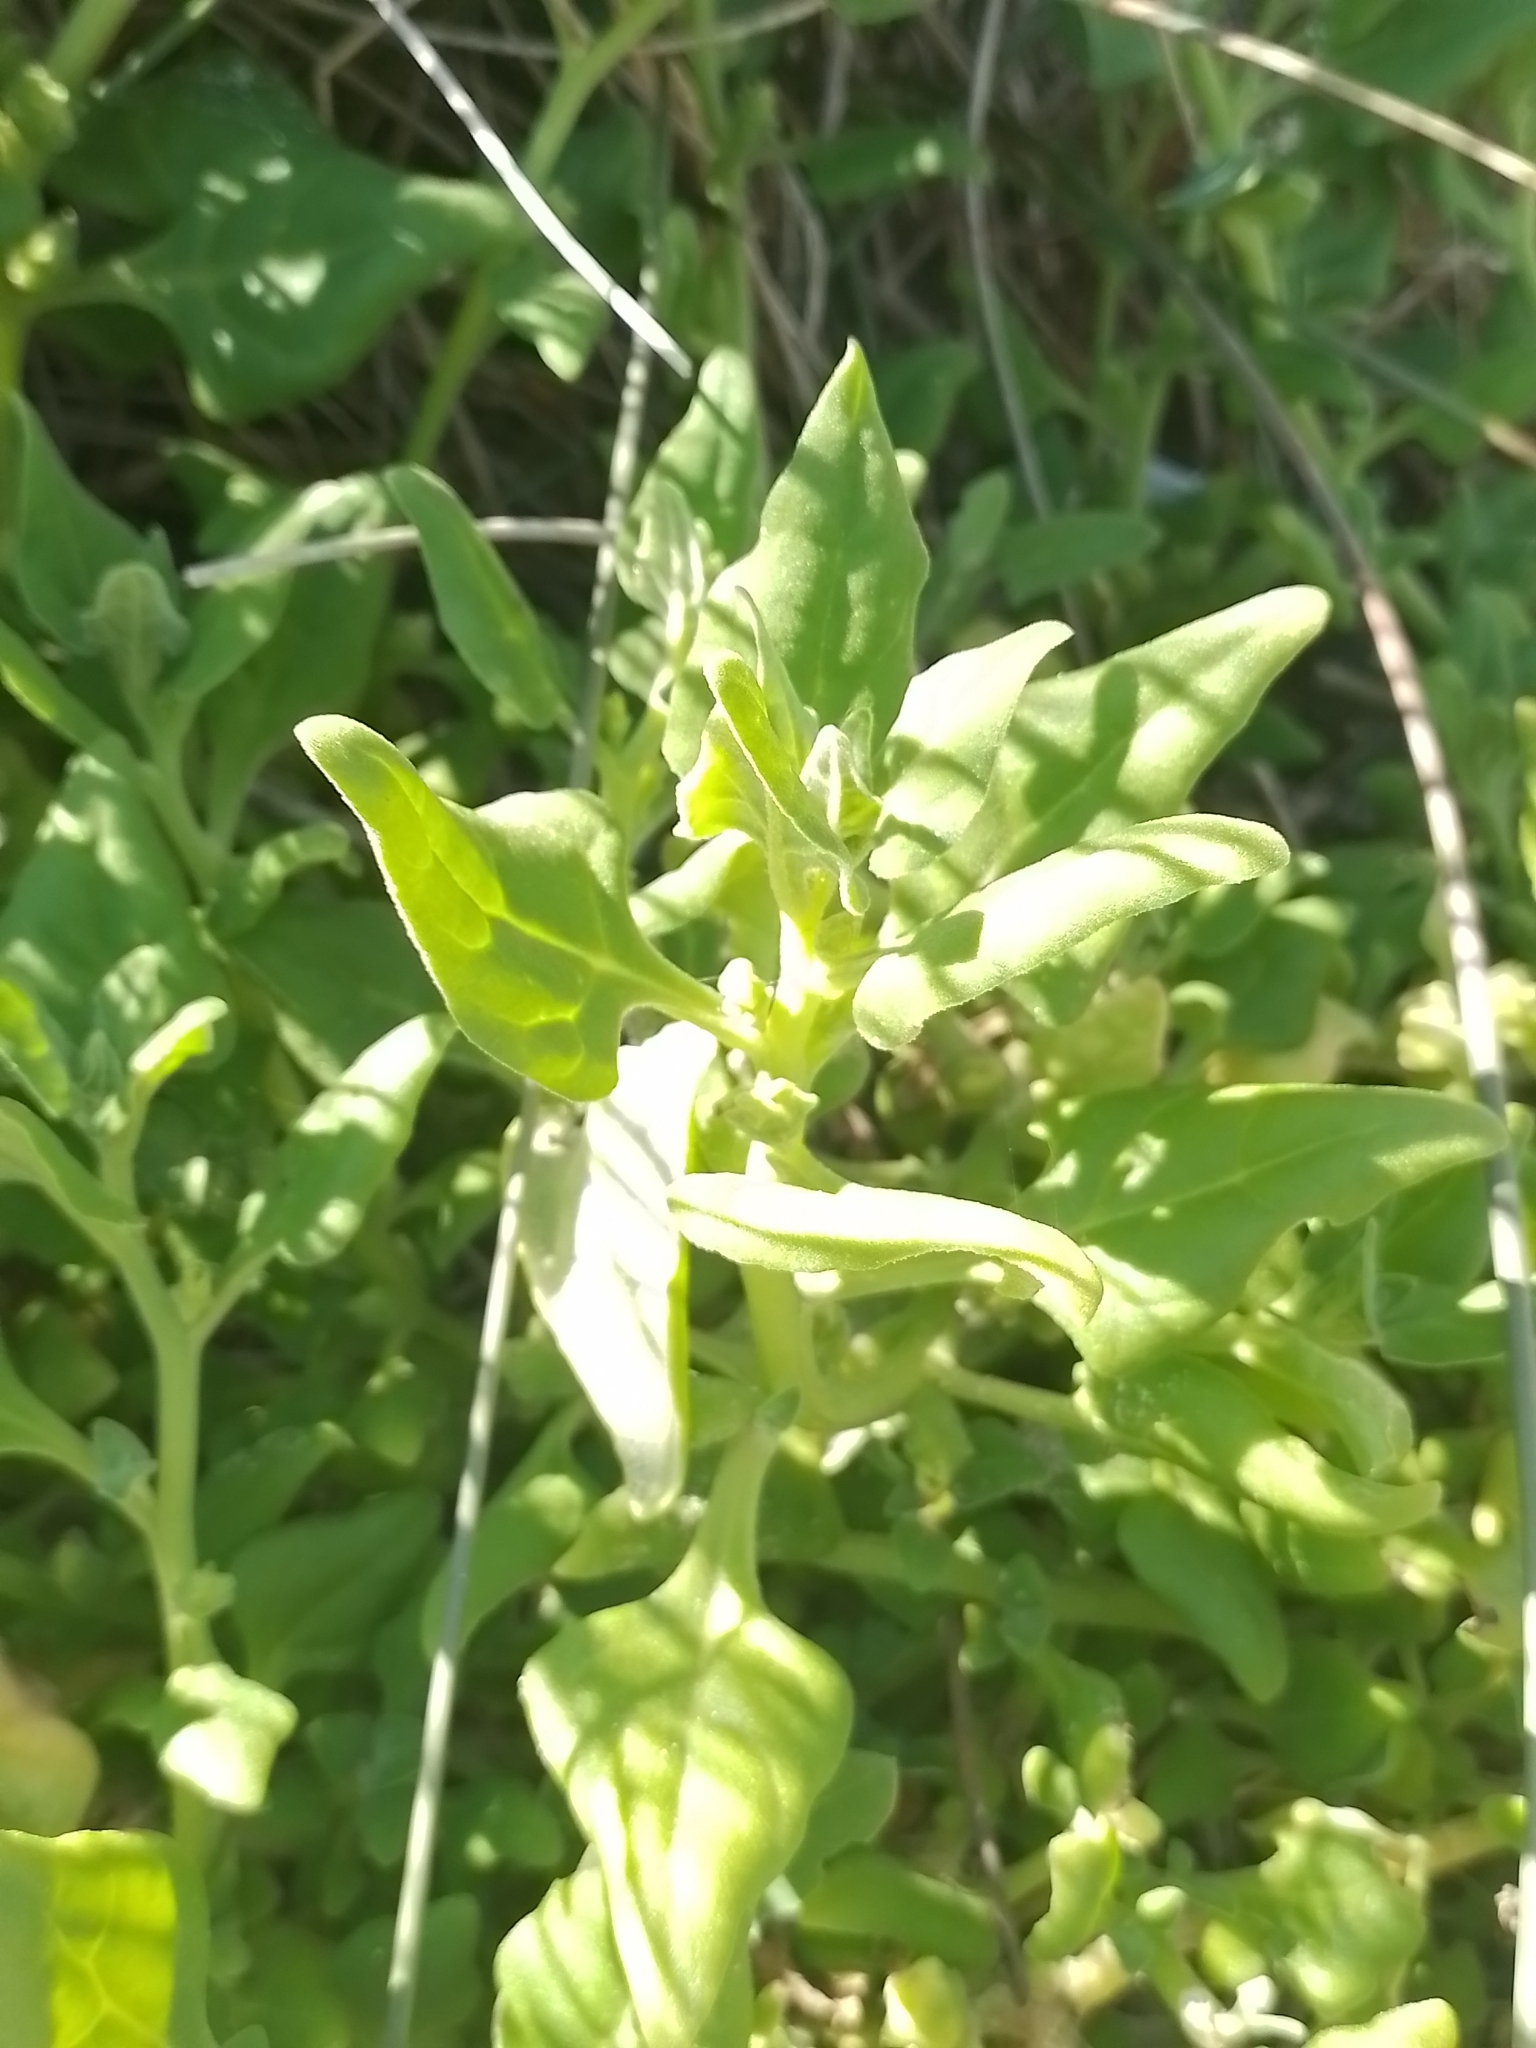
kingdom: Plantae
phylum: Tracheophyta
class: Magnoliopsida
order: Caryophyllales
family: Aizoaceae
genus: Tetragonia
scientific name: Tetragonia tetragonoides
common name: New zealand-spinach
